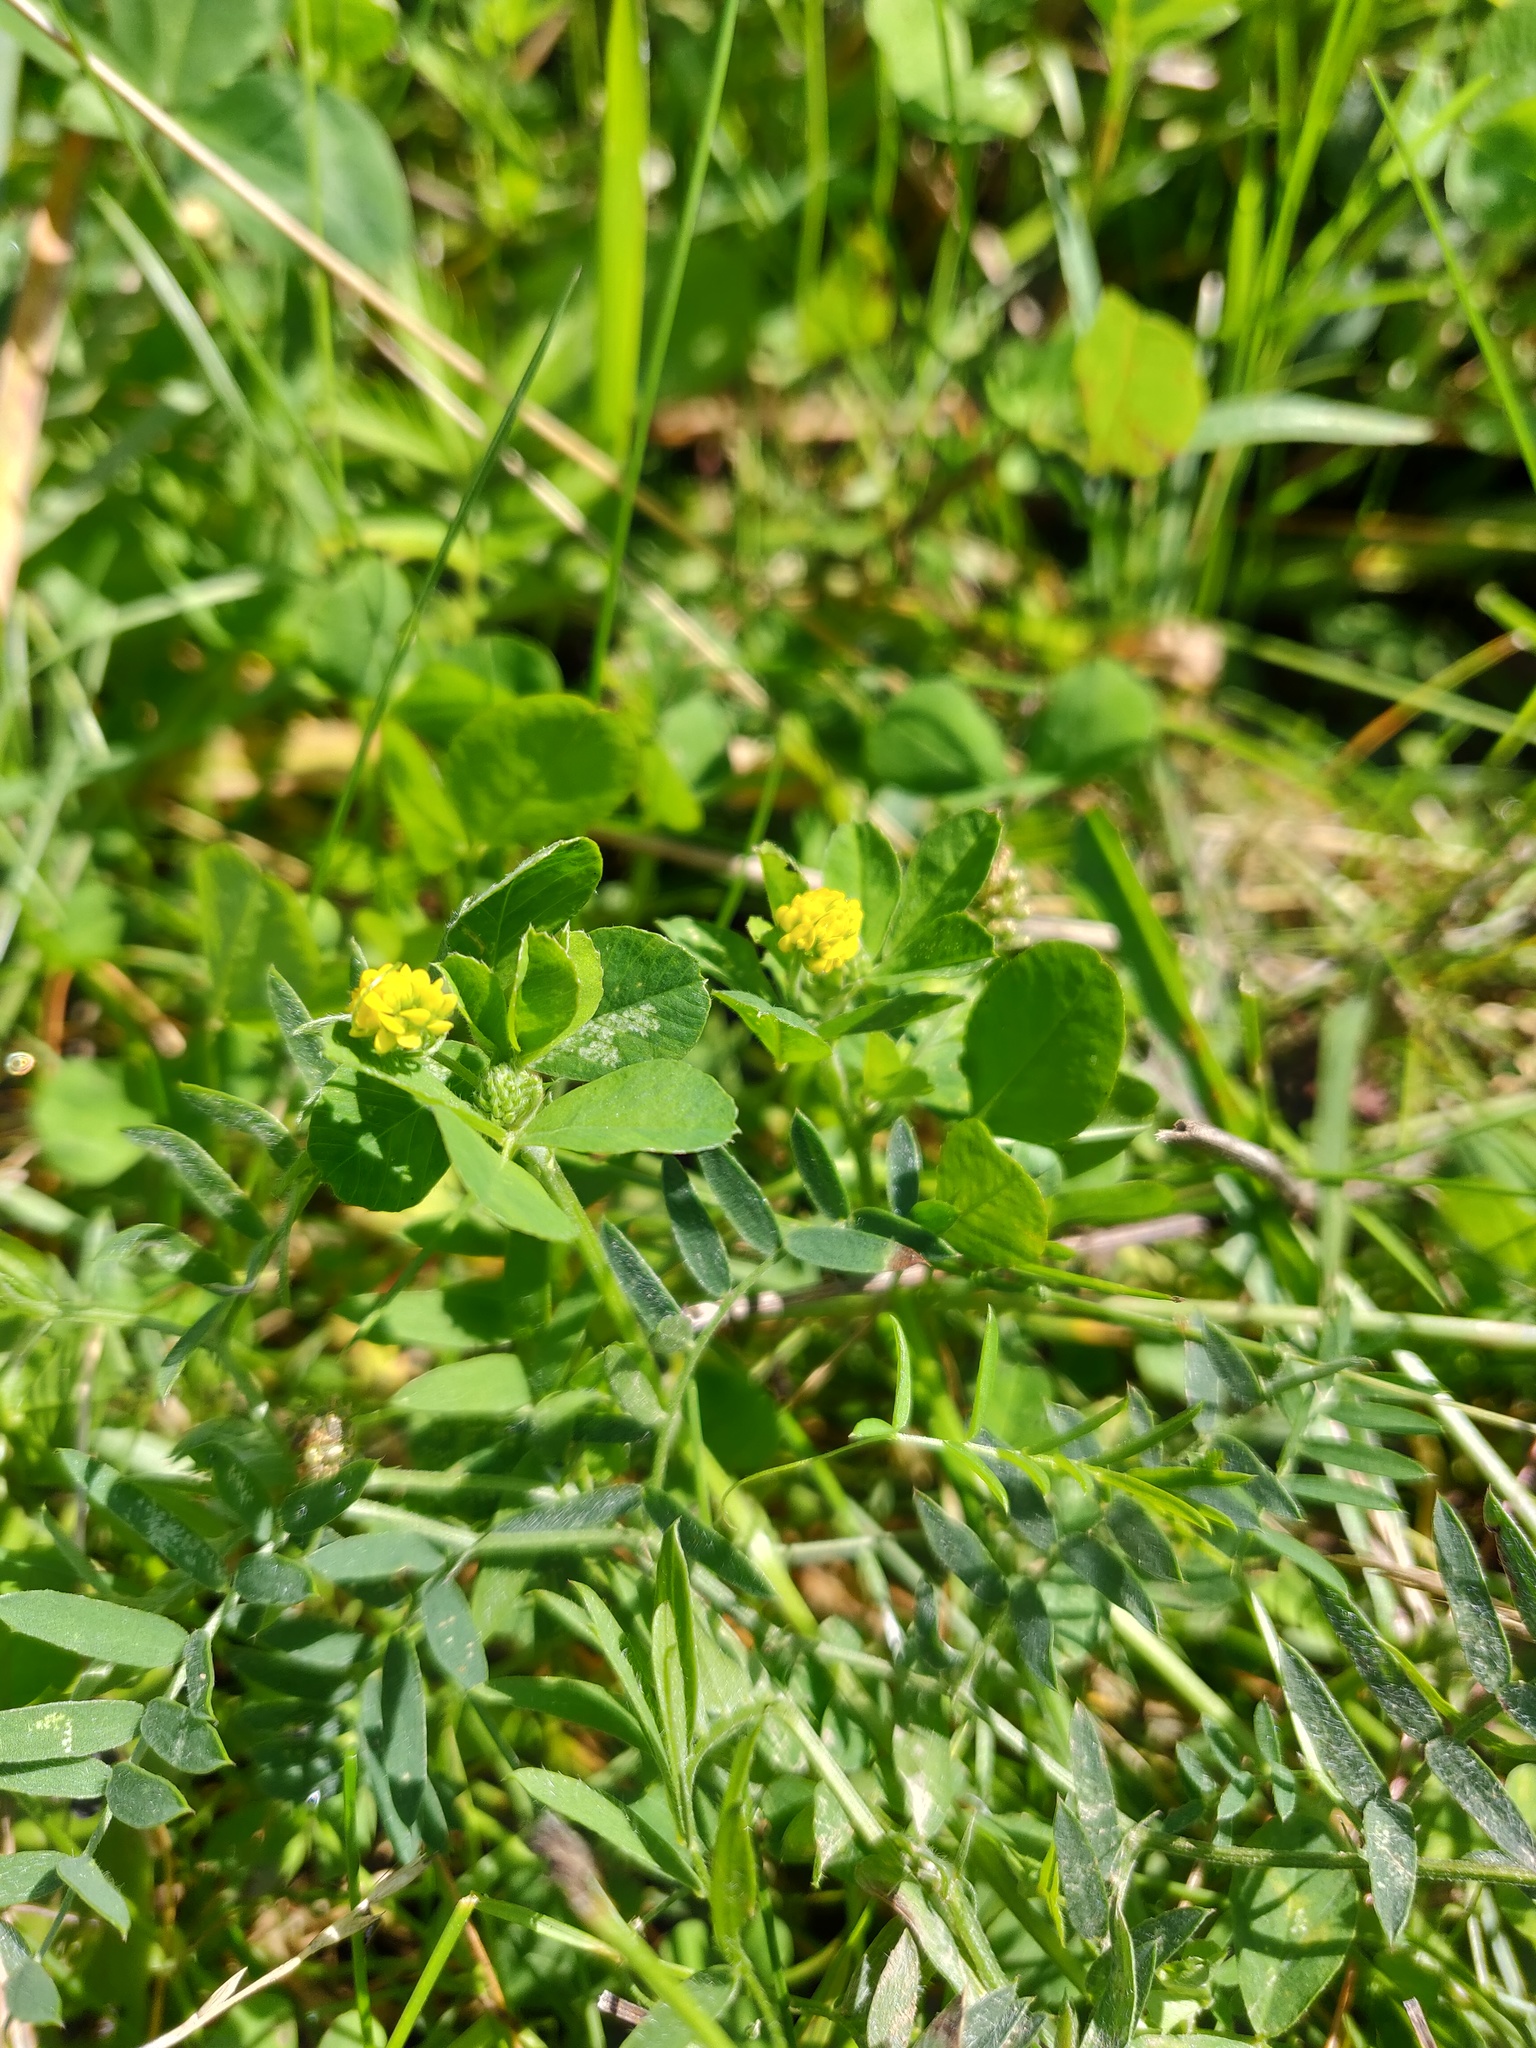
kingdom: Plantae
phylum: Tracheophyta
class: Magnoliopsida
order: Fabales
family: Fabaceae
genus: Medicago
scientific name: Medicago lupulina
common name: Black medick
